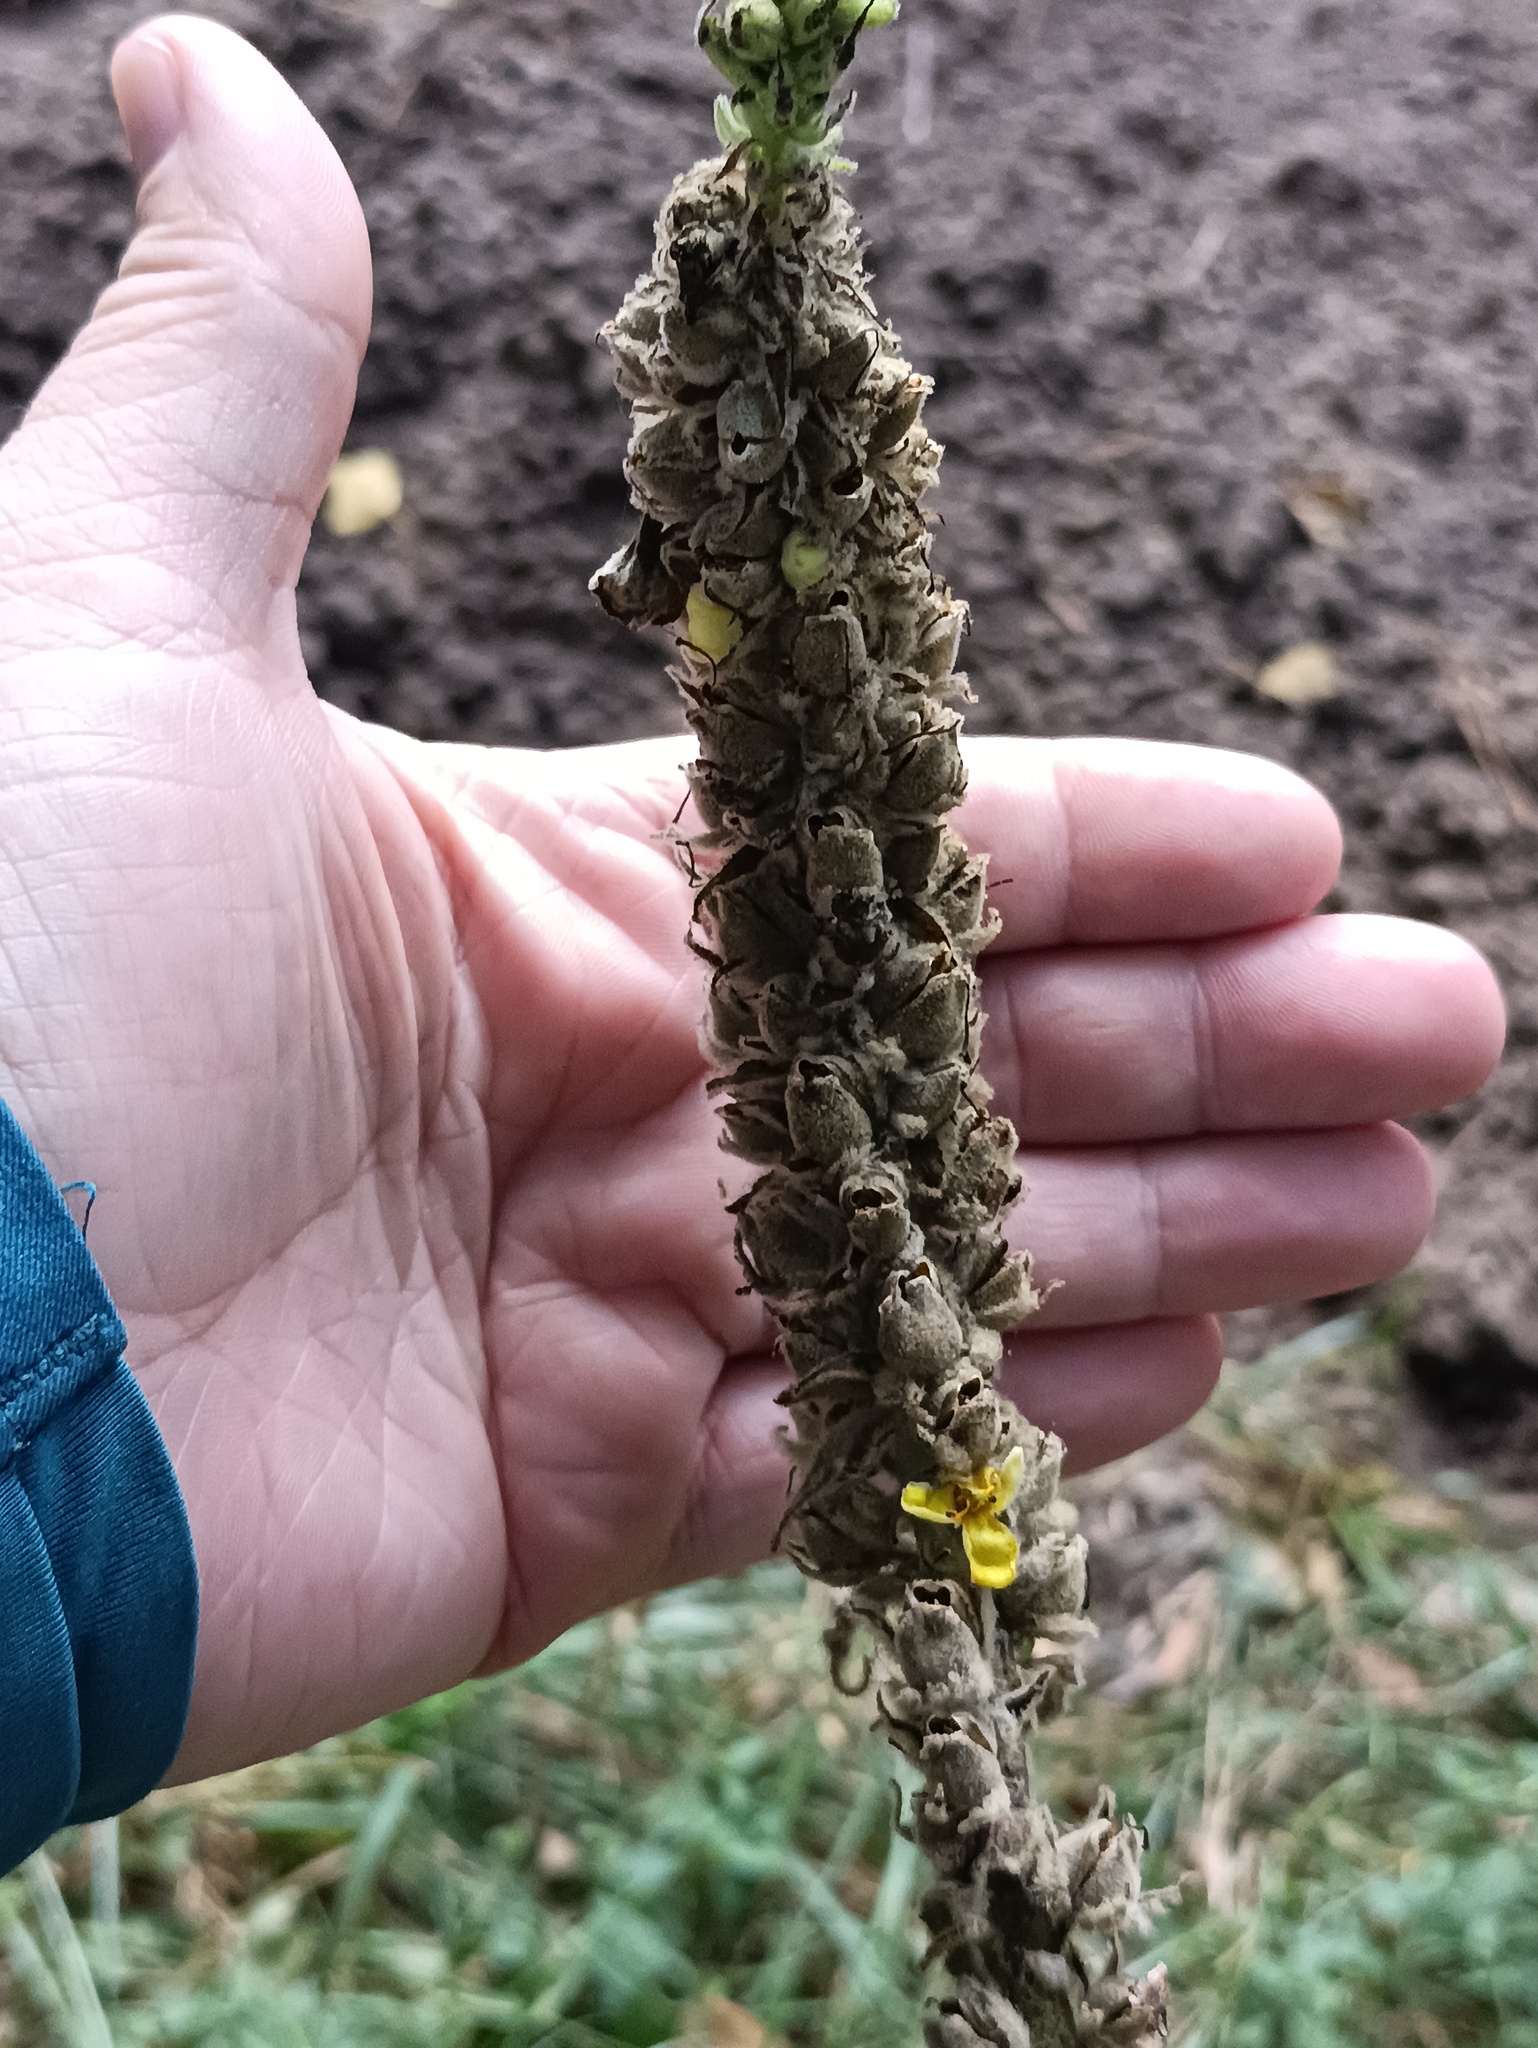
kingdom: Plantae
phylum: Tracheophyta
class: Magnoliopsida
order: Lamiales
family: Scrophulariaceae
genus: Verbascum
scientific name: Verbascum thapsus
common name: Common mullein
